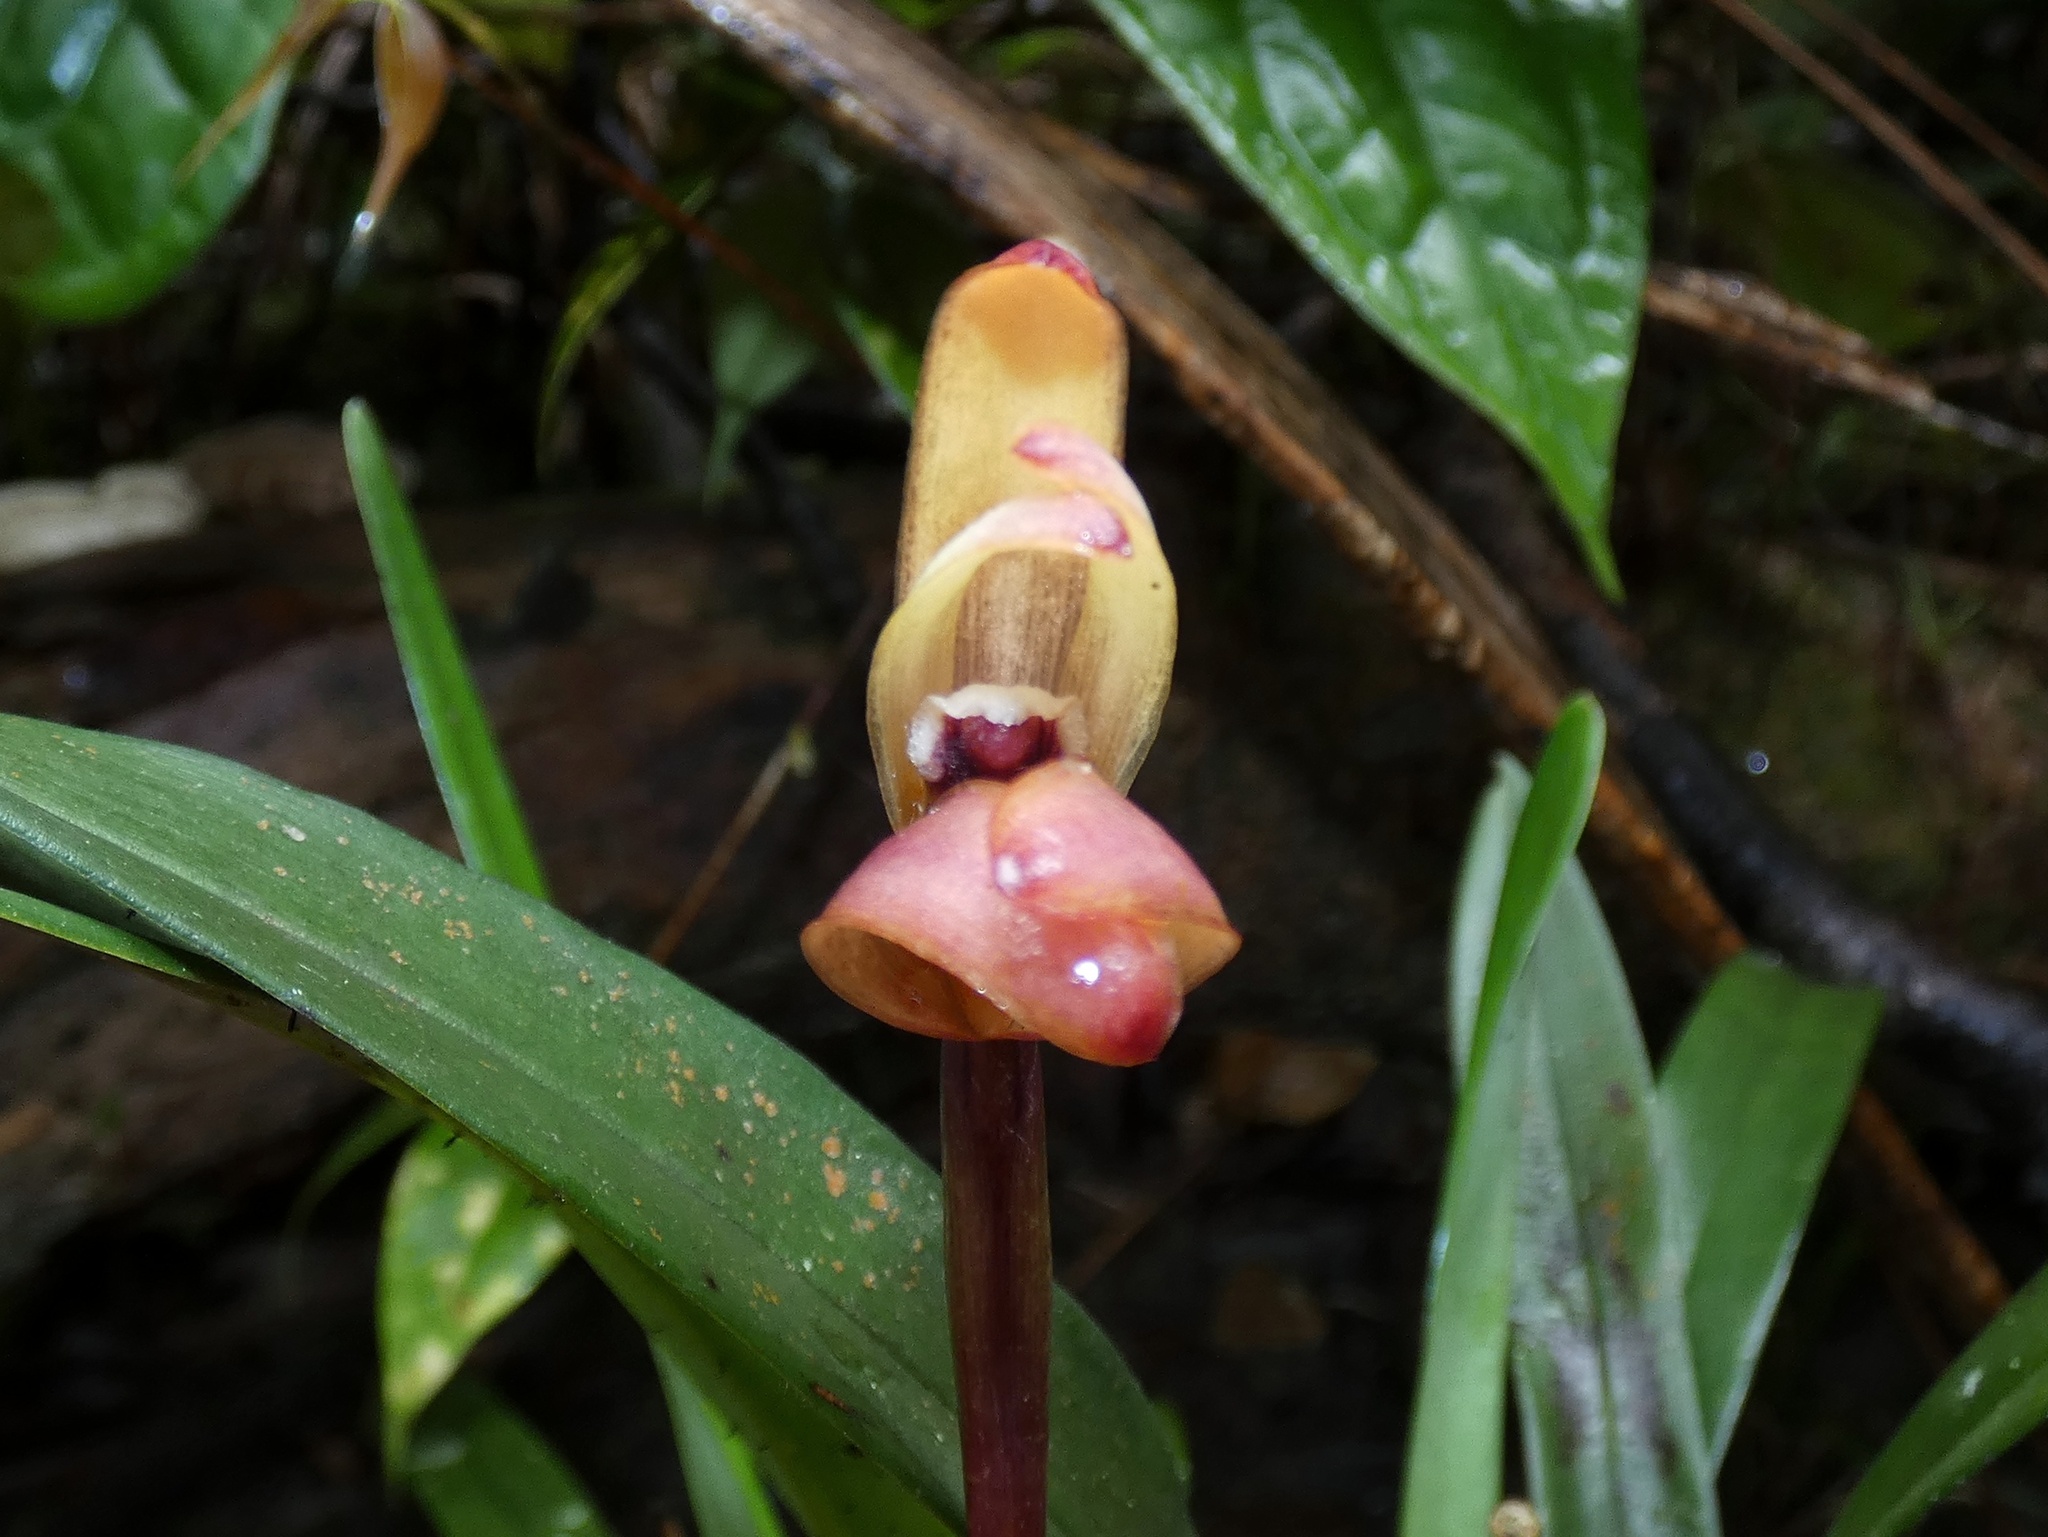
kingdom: Plantae
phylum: Tracheophyta
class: Liliopsida
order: Asparagales
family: Orchidaceae
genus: Maxillaria
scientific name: Maxillaria porrecta
